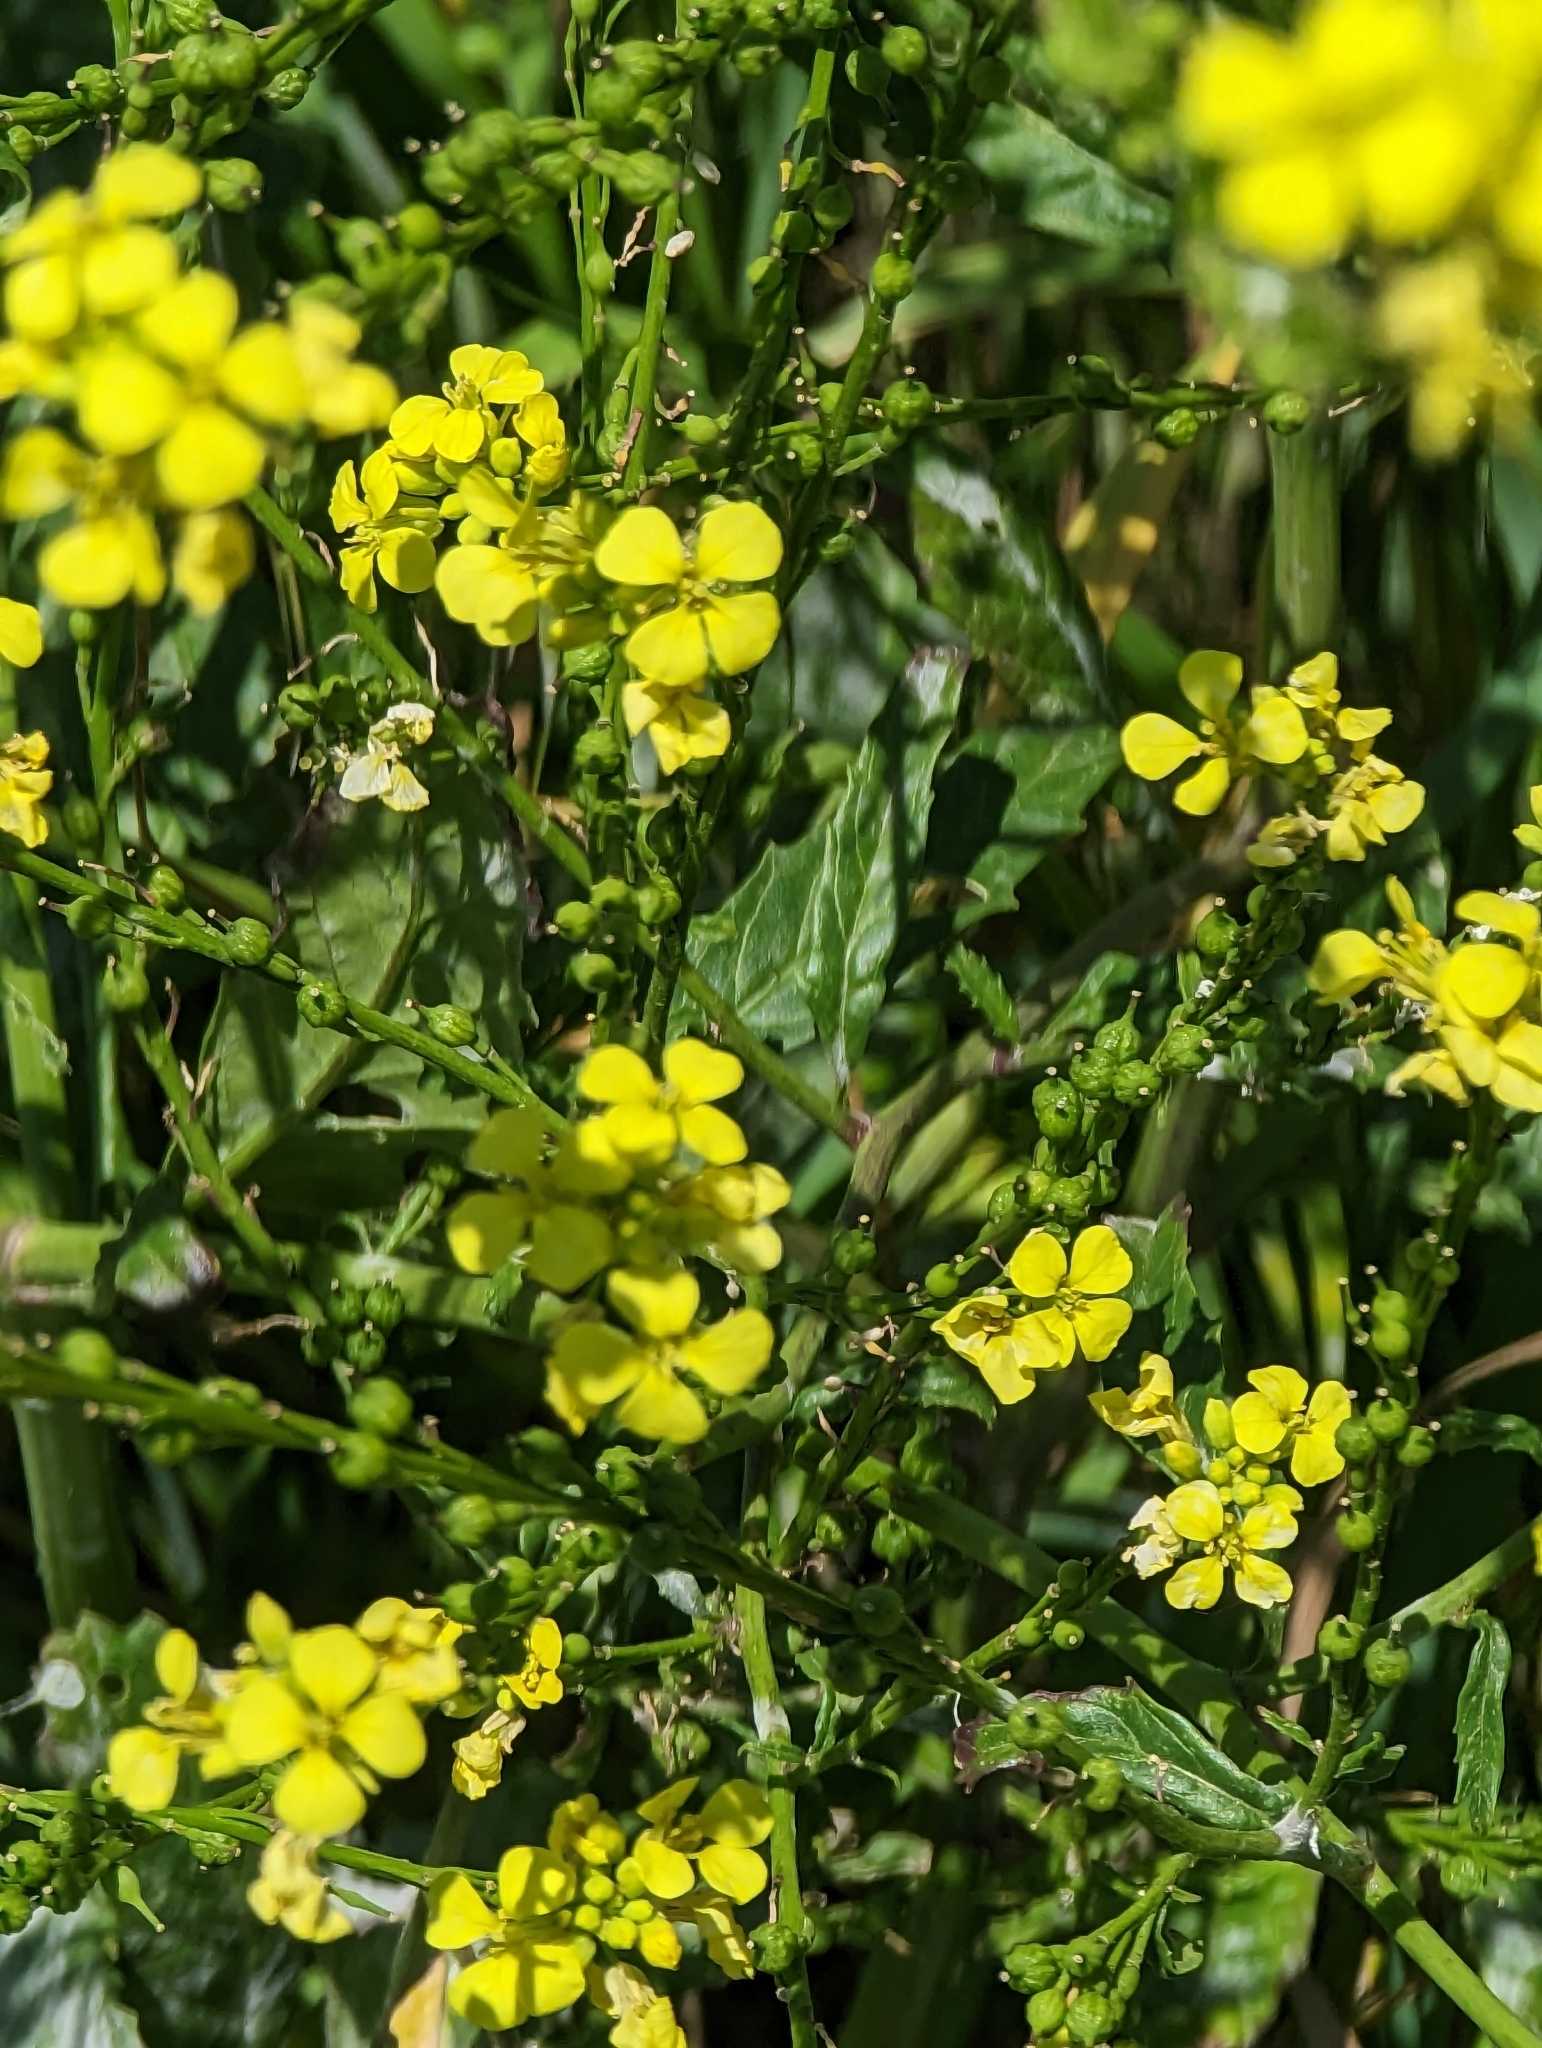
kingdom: Plantae
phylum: Tracheophyta
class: Magnoliopsida
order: Brassicales
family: Brassicaceae
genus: Rapistrum
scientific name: Rapistrum rugosum
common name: Annual bastardcabbage
